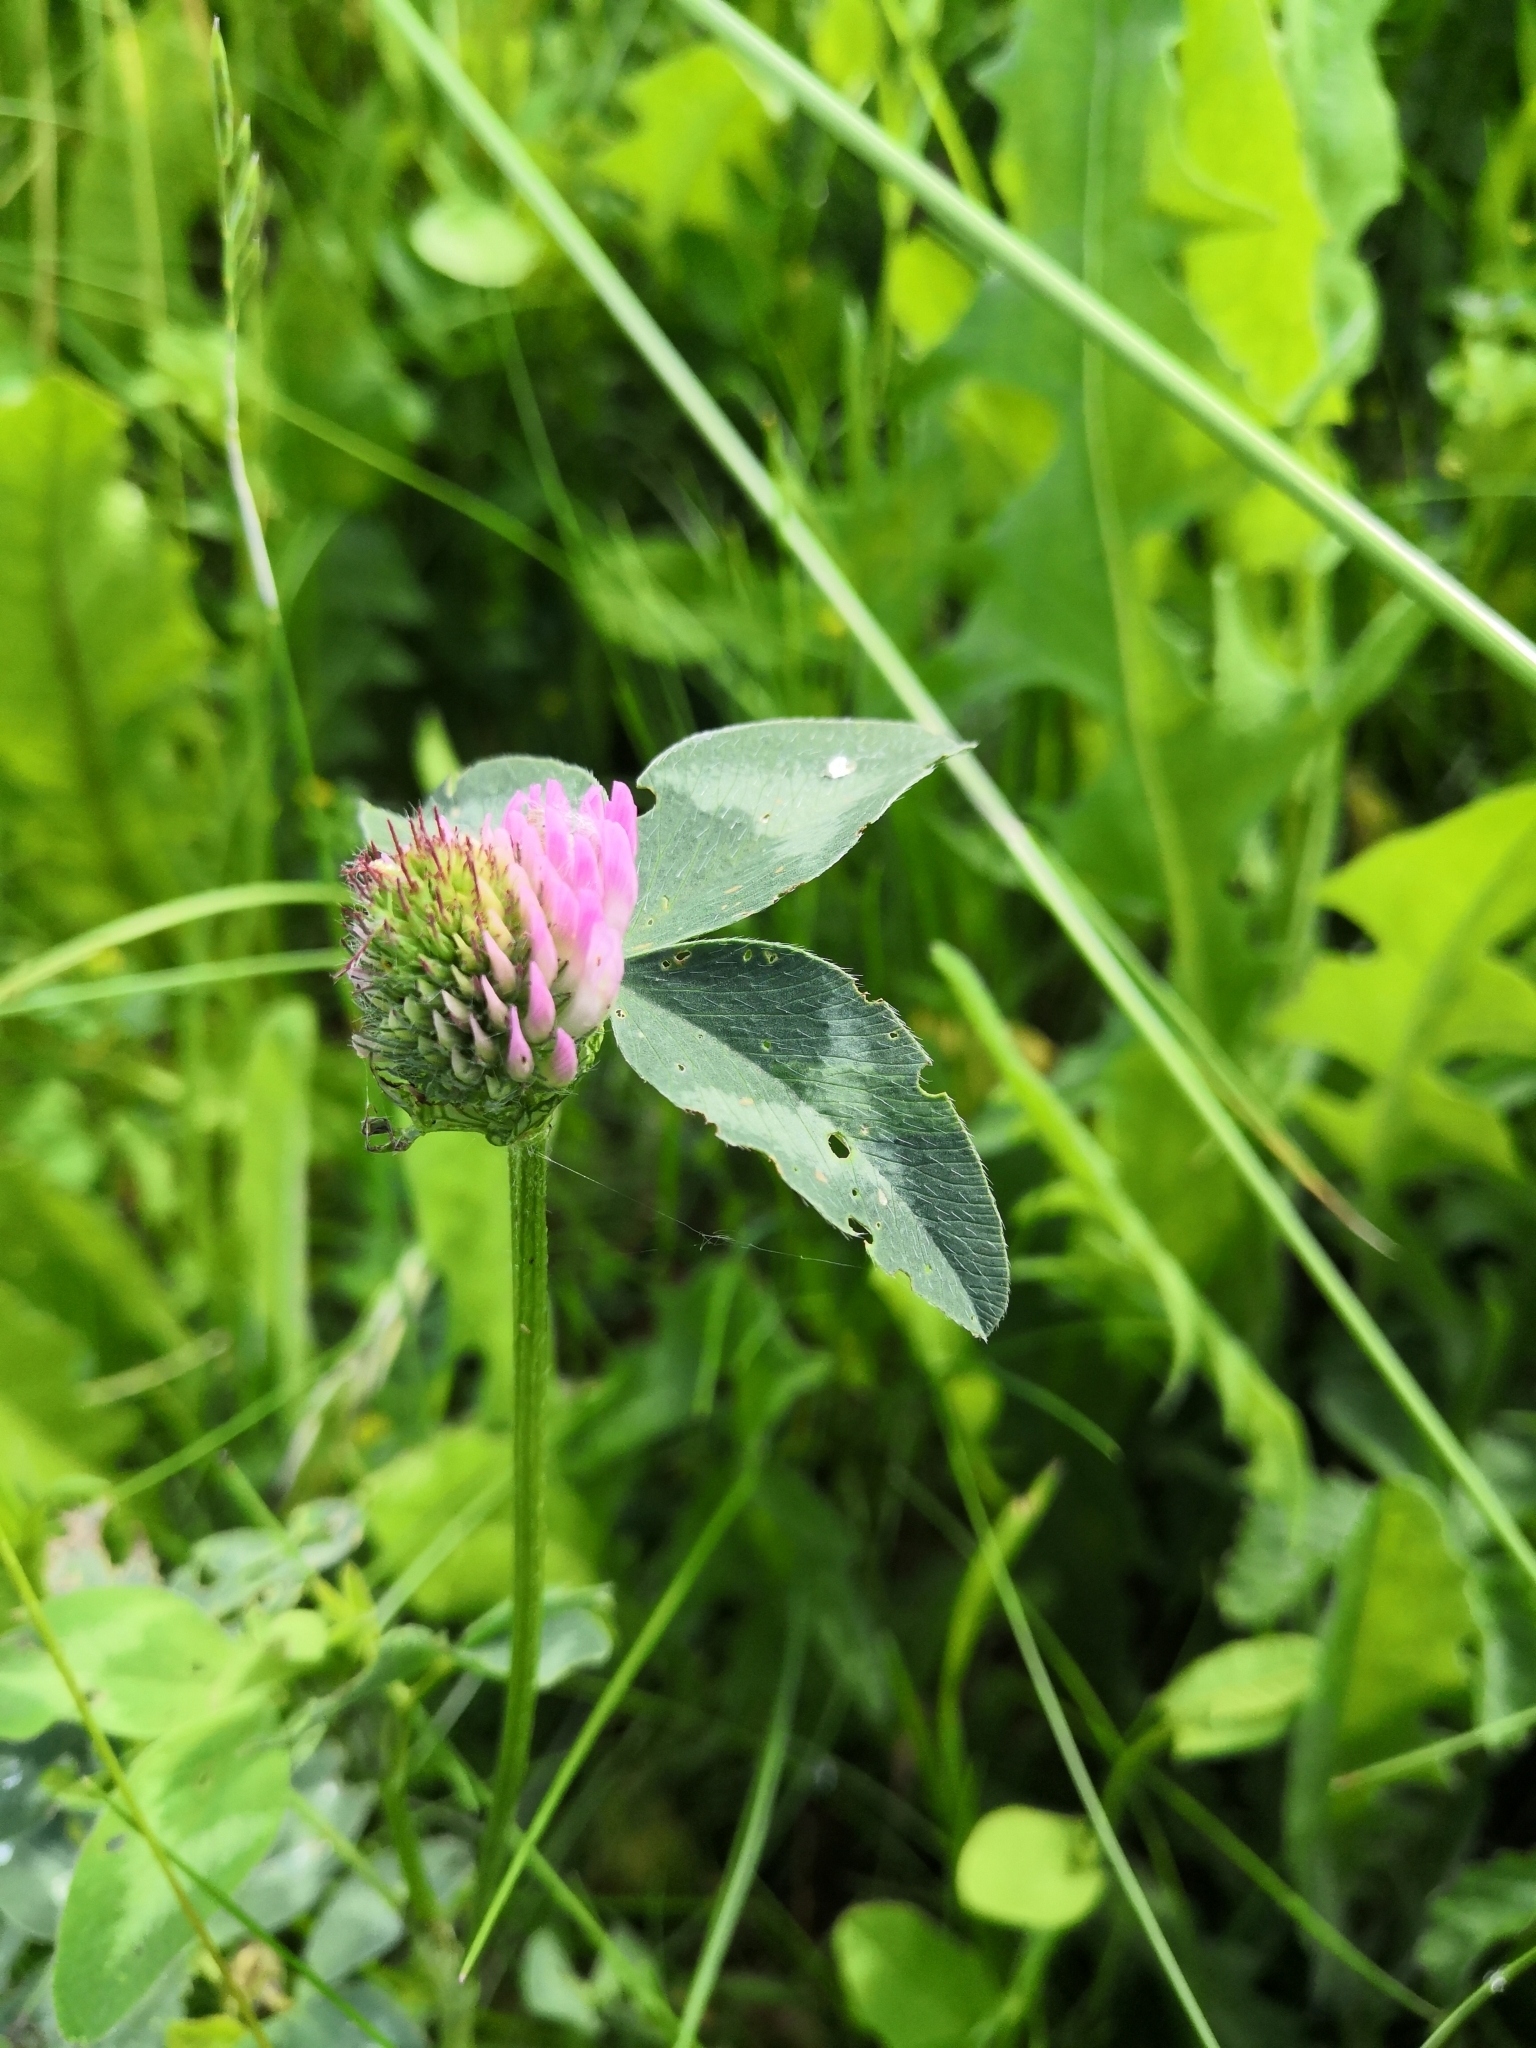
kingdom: Plantae
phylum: Tracheophyta
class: Magnoliopsida
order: Fabales
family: Fabaceae
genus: Trifolium
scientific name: Trifolium pratense
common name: Red clover
